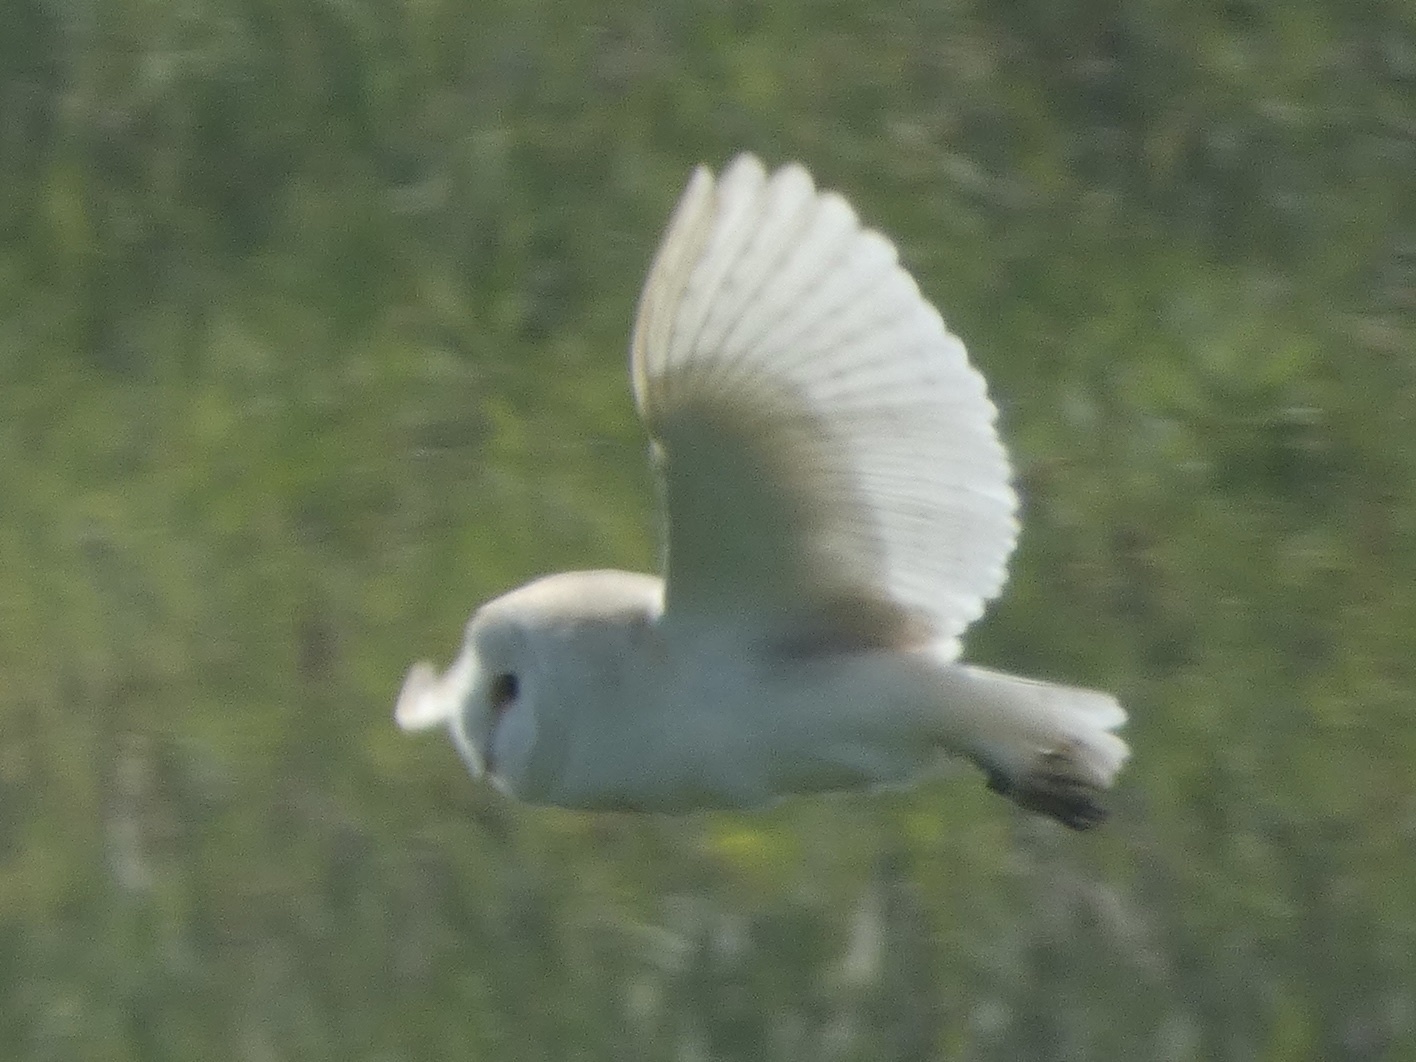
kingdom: Animalia
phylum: Chordata
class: Aves
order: Strigiformes
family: Tytonidae
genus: Tyto
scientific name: Tyto alba
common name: Barn owl
